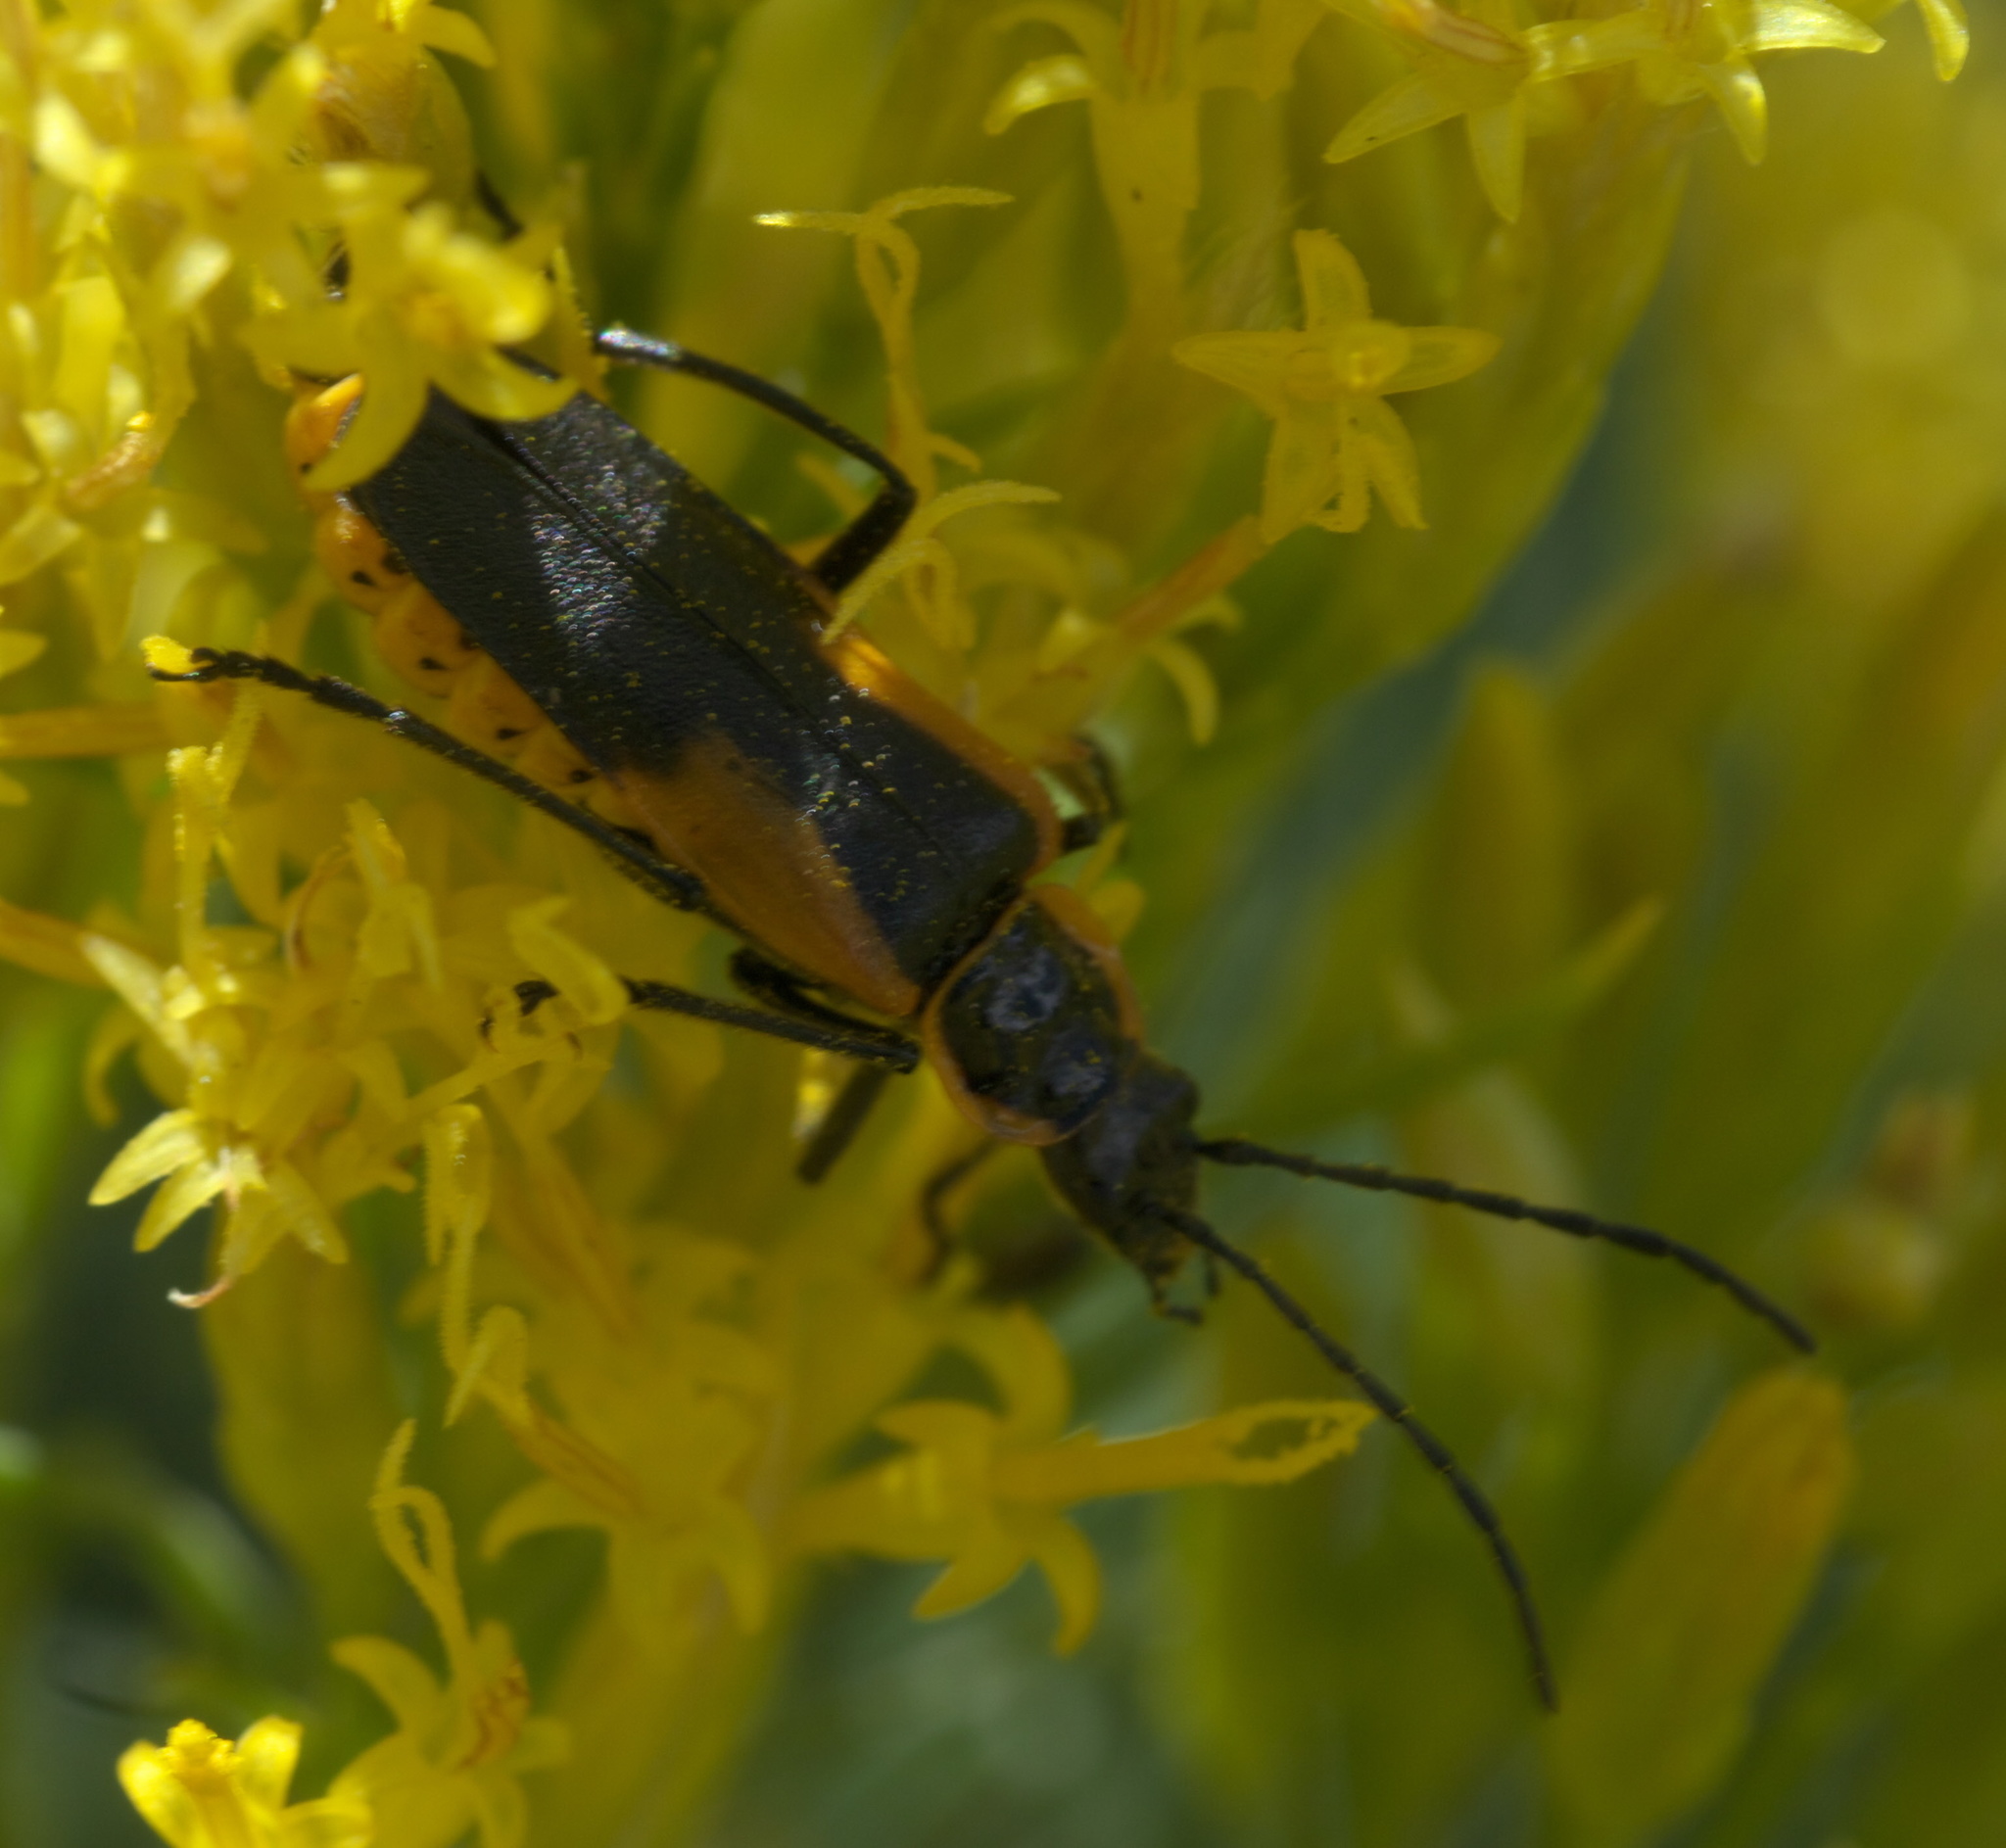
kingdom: Animalia
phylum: Arthropoda
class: Insecta
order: Coleoptera
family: Cantharidae
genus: Chauliognathus
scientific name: Chauliognathus deceptus
